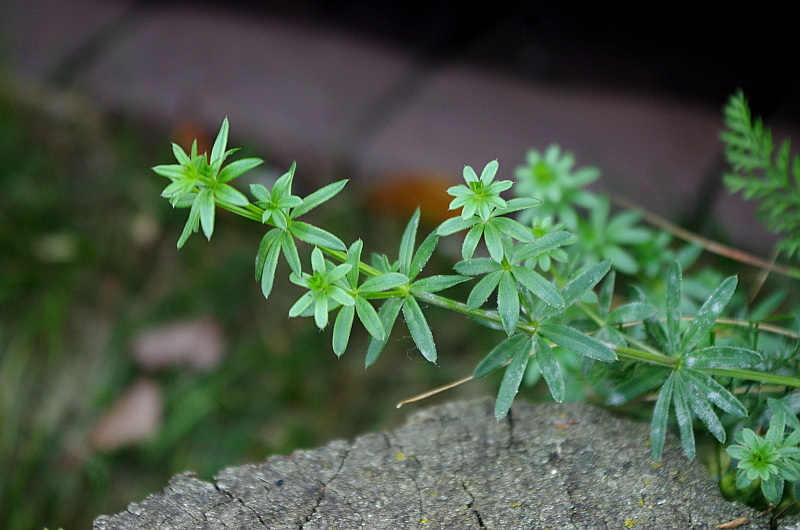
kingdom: Plantae
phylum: Tracheophyta
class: Magnoliopsida
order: Gentianales
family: Rubiaceae
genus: Galium
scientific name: Galium mollugo
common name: Hedge bedstraw
